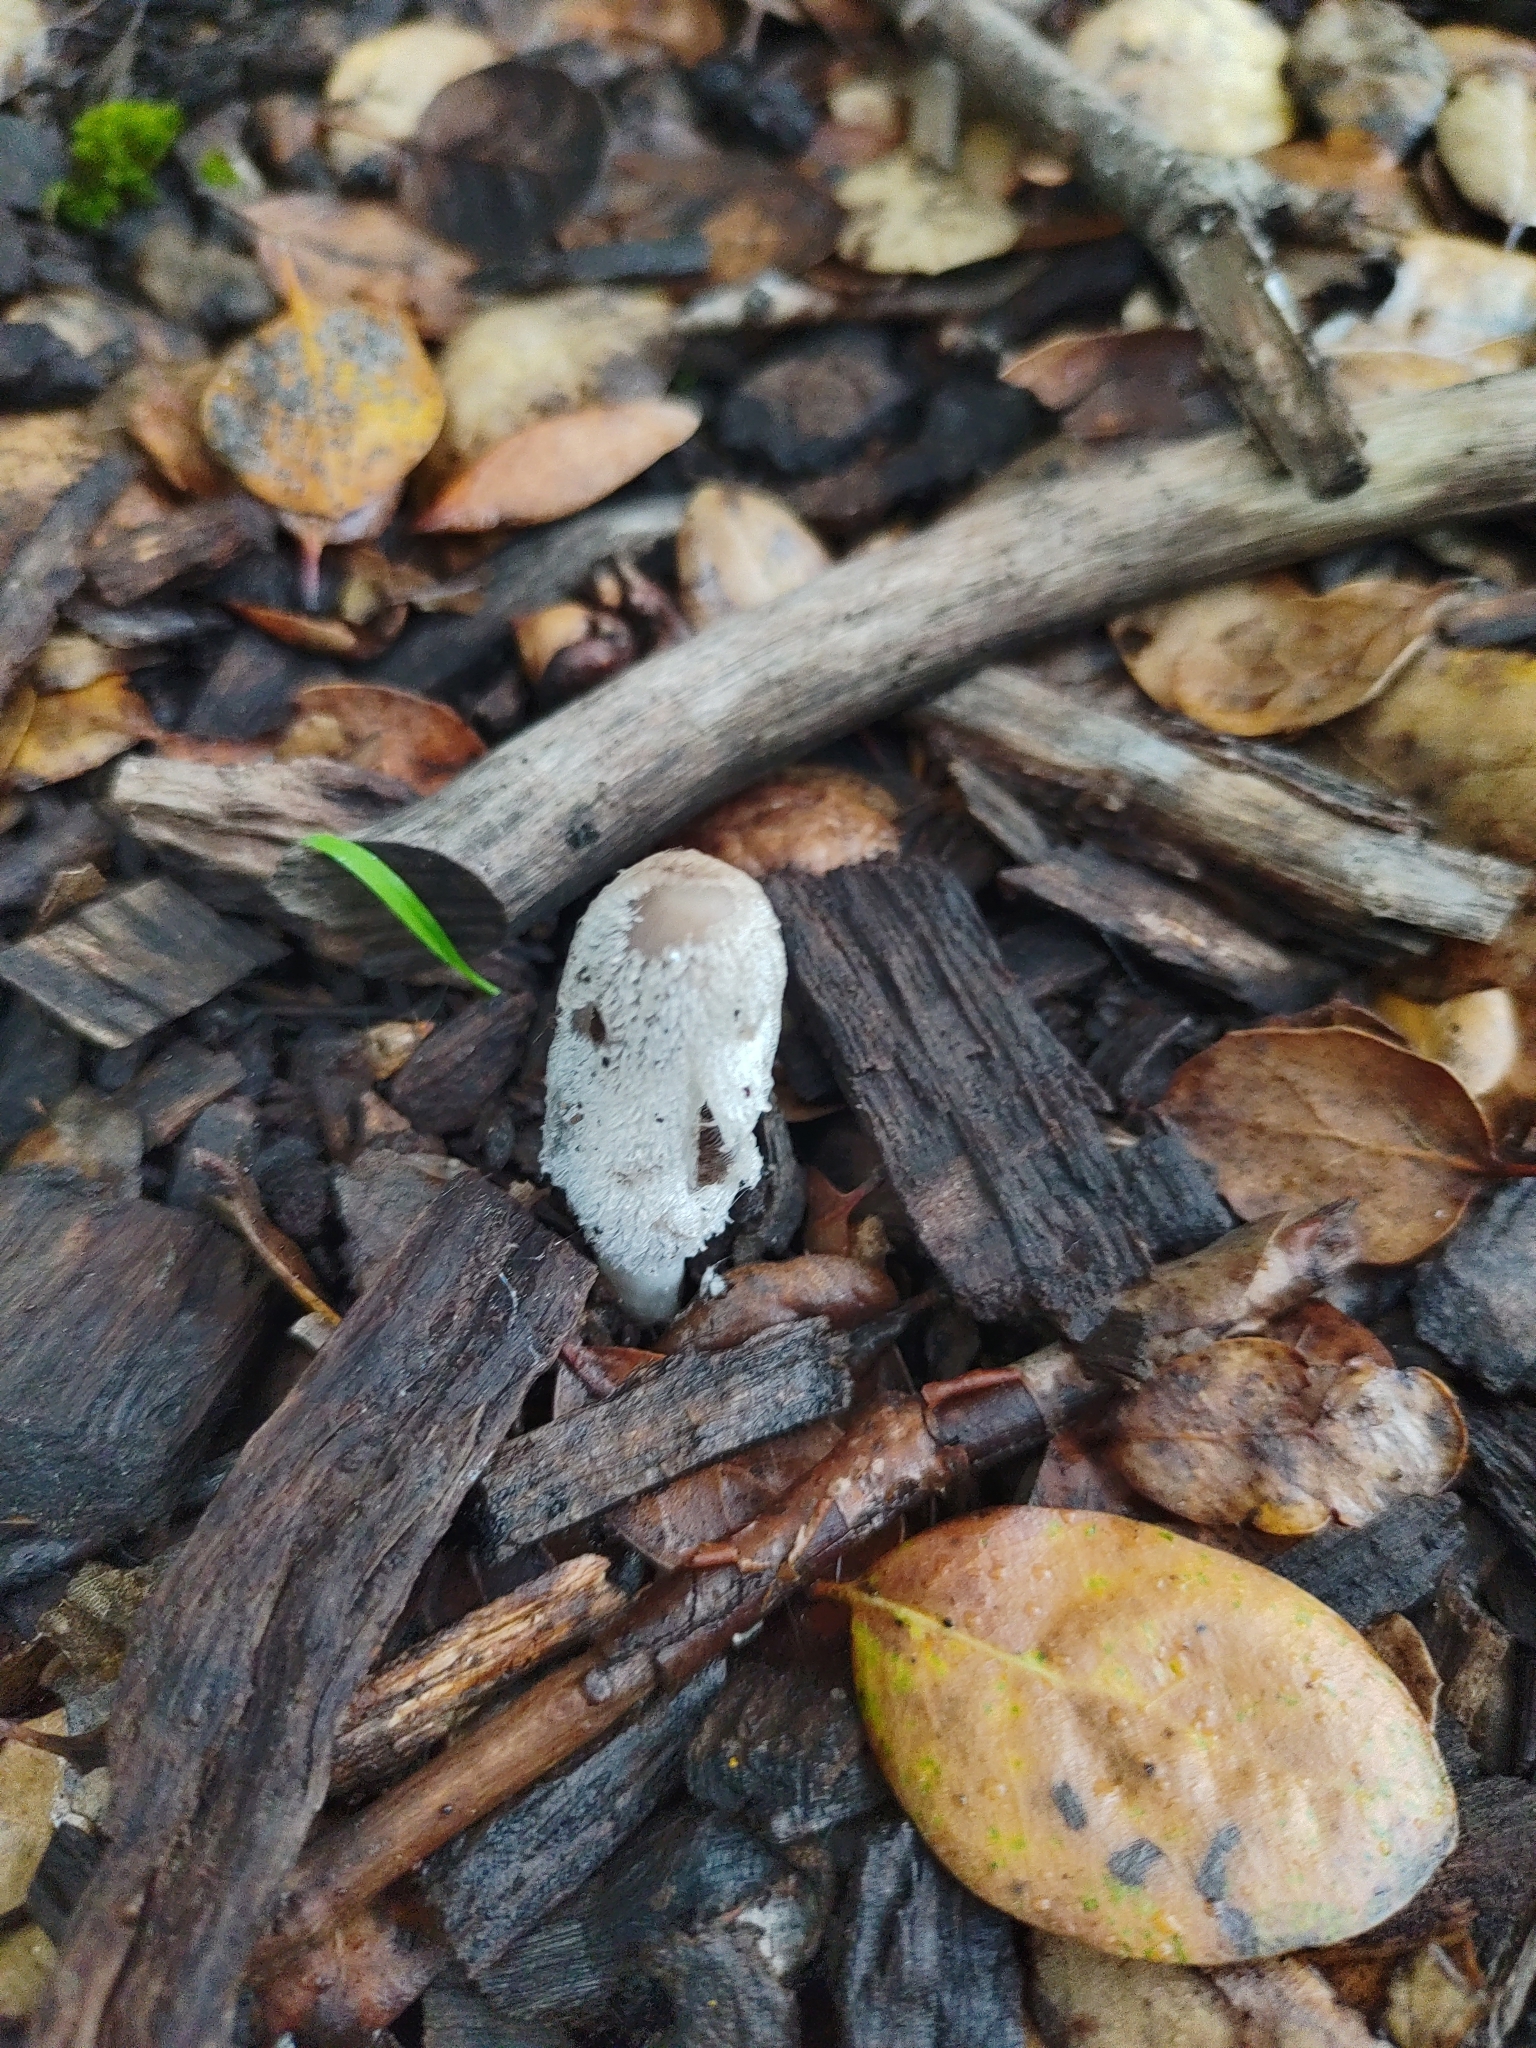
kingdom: Fungi
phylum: Basidiomycota
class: Agaricomycetes
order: Agaricales
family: Psathyrellaceae
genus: Coprinopsis
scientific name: Coprinopsis lagopus
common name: Hare'sfoot inkcap
